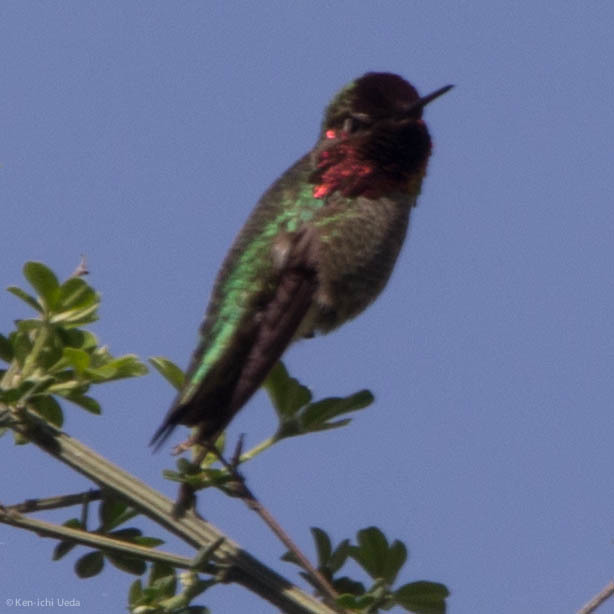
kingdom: Animalia
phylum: Chordata
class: Aves
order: Apodiformes
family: Trochilidae
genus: Calypte
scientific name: Calypte anna
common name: Anna's hummingbird
